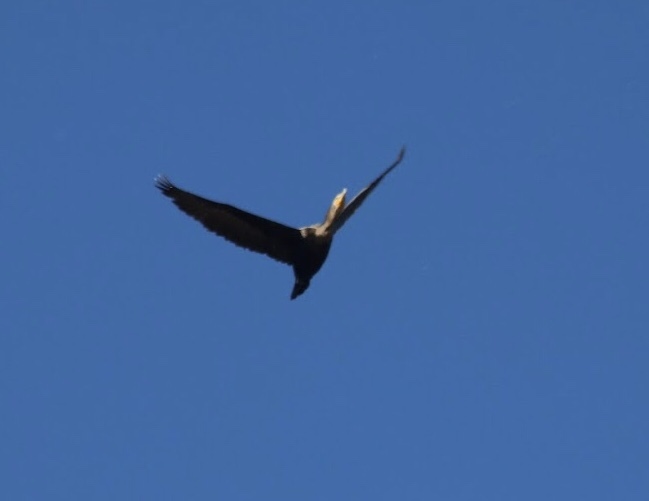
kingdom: Animalia
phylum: Chordata
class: Aves
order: Suliformes
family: Phalacrocoracidae
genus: Phalacrocorax
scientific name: Phalacrocorax auritus
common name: Double-crested cormorant
